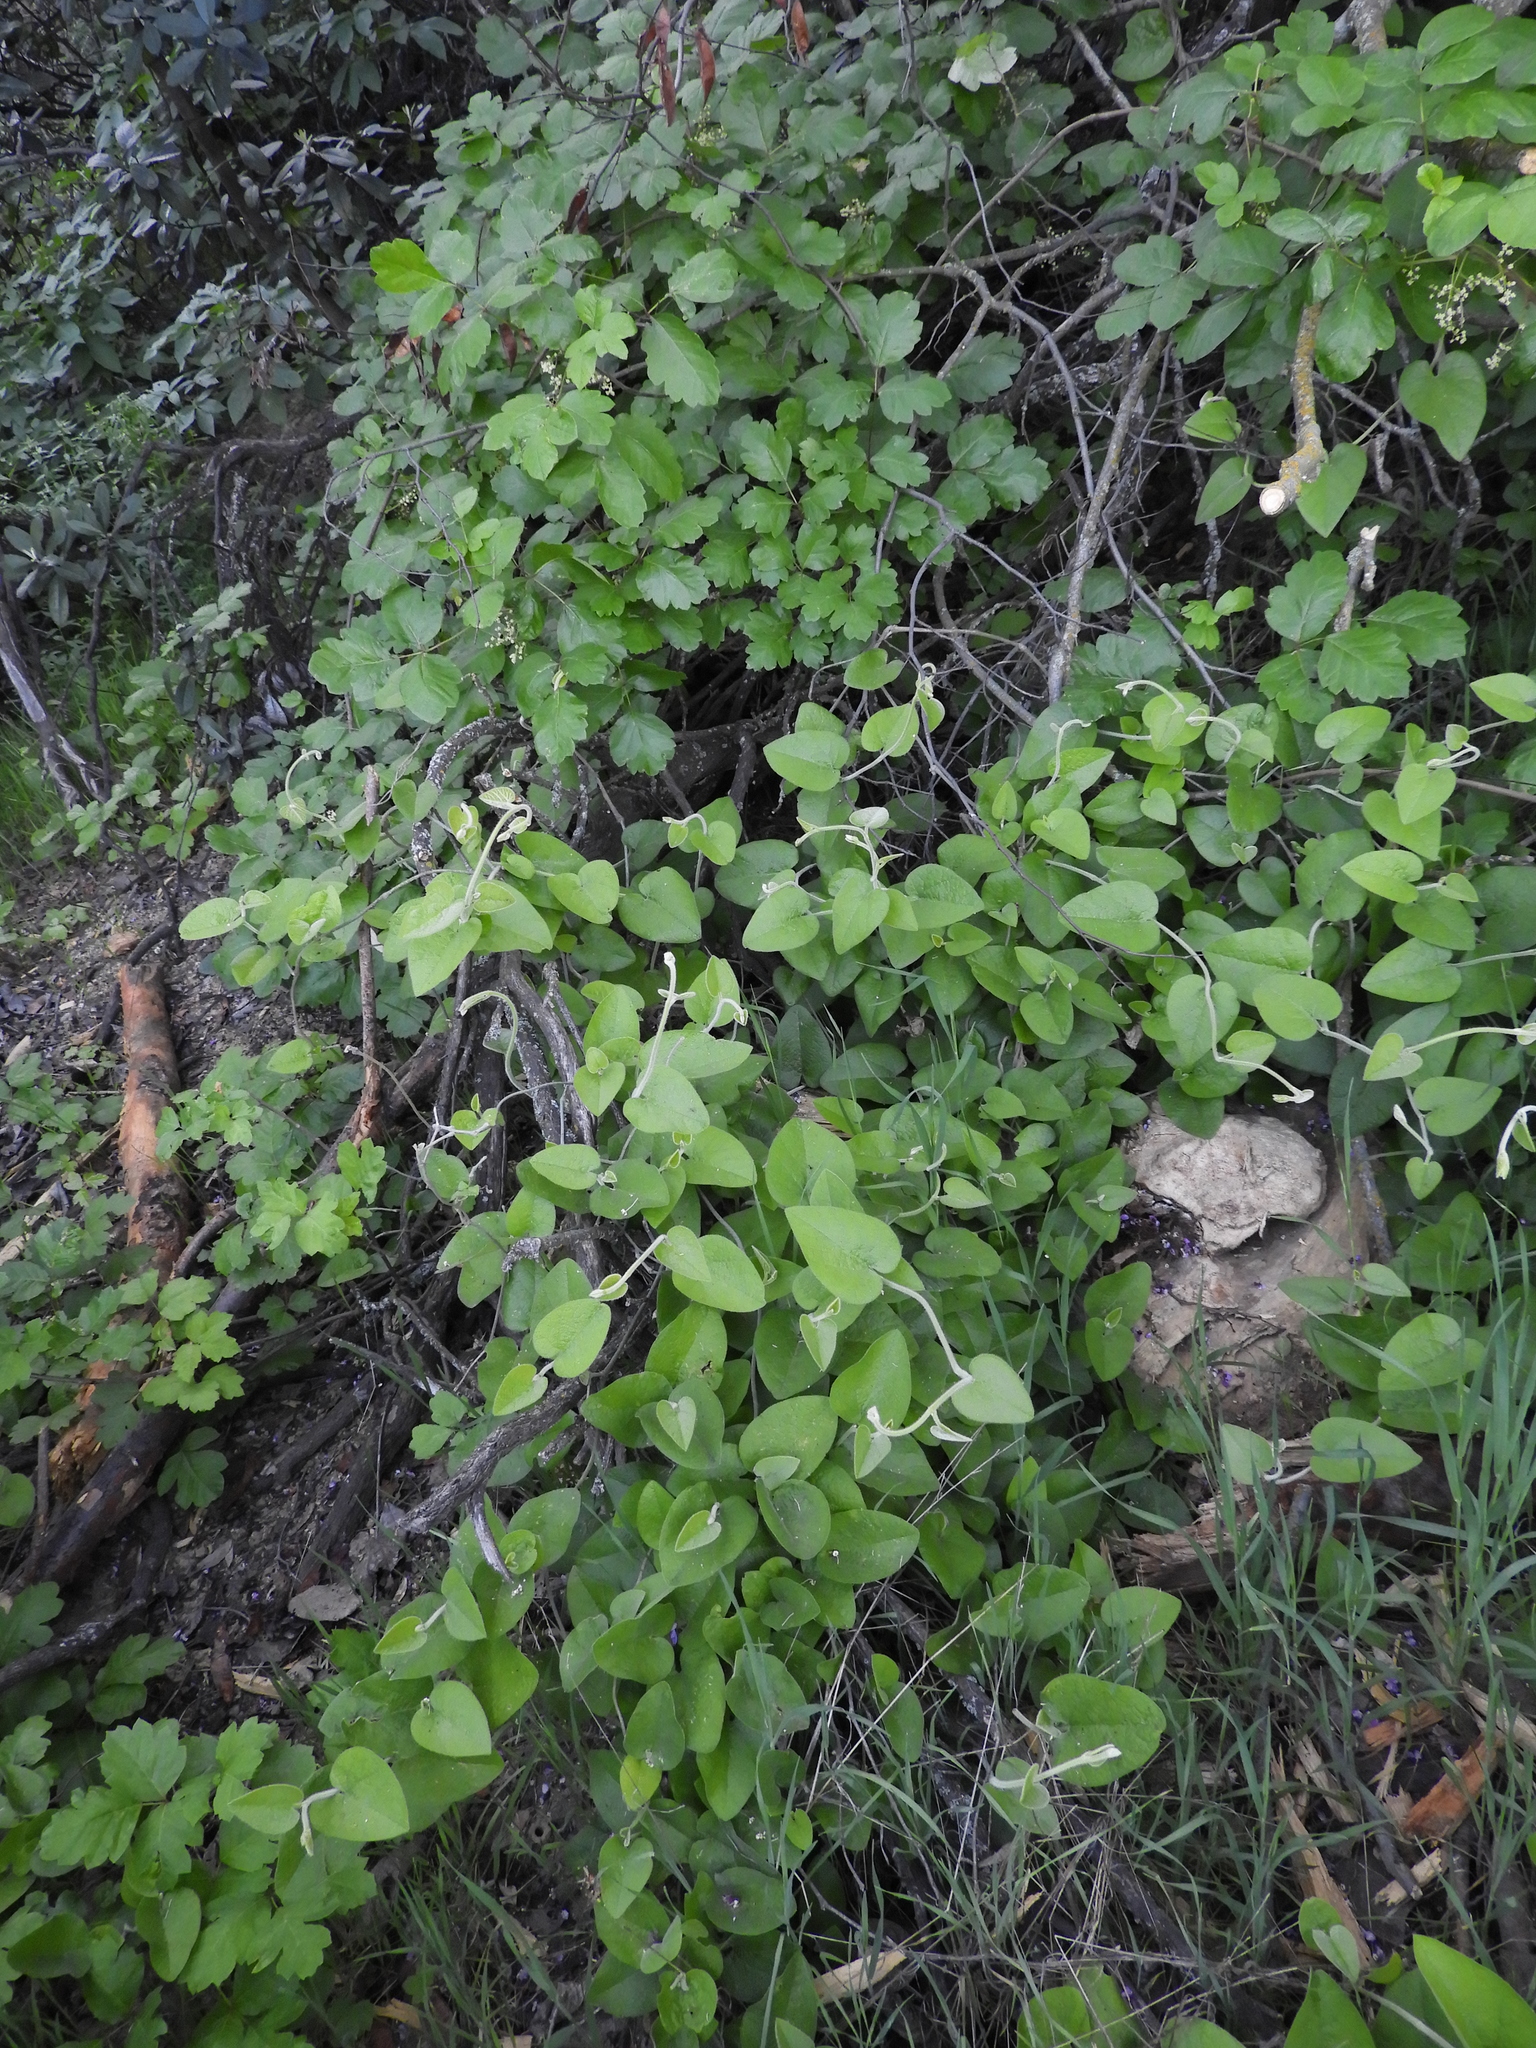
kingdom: Plantae
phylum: Tracheophyta
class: Magnoliopsida
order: Piperales
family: Aristolochiaceae
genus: Isotrema
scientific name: Isotrema californicum
